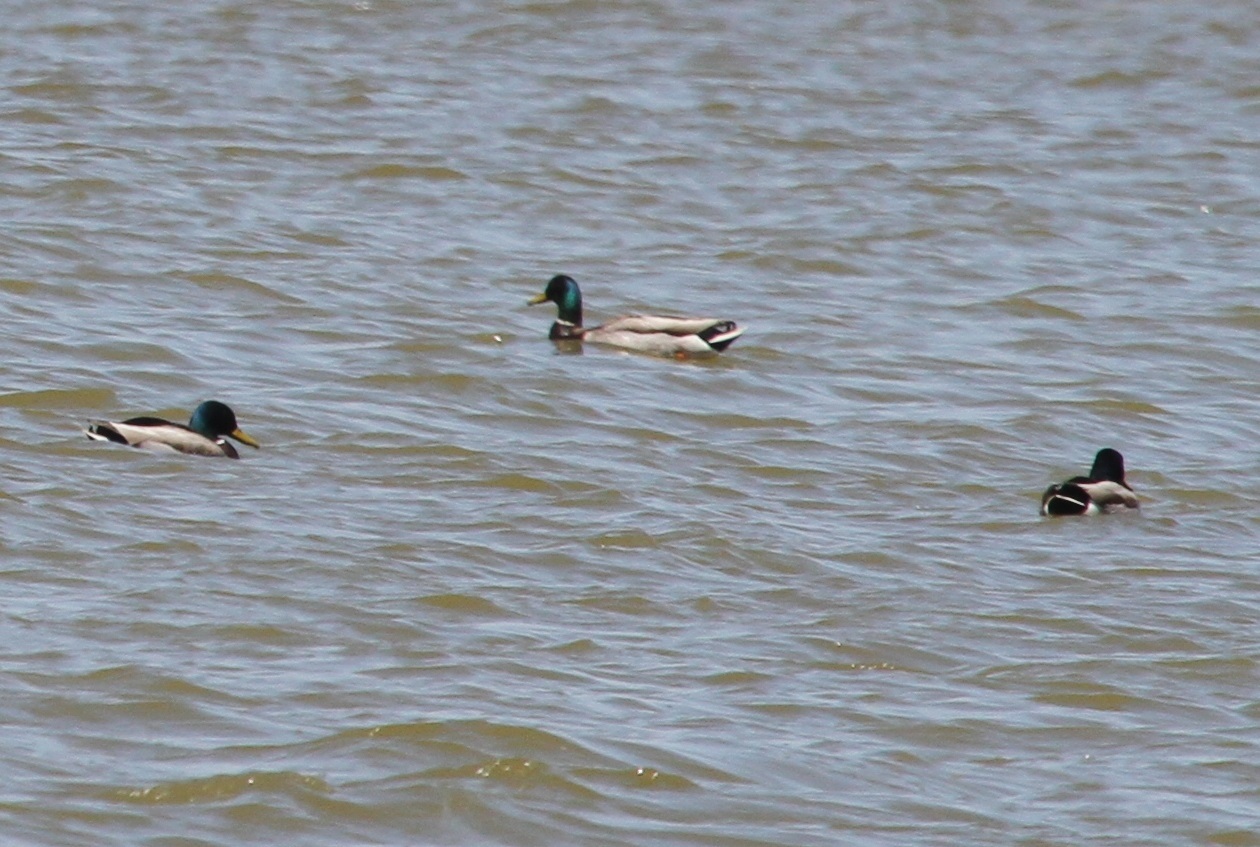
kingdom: Animalia
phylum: Chordata
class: Aves
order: Anseriformes
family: Anatidae
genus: Anas
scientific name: Anas platyrhynchos
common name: Mallard
